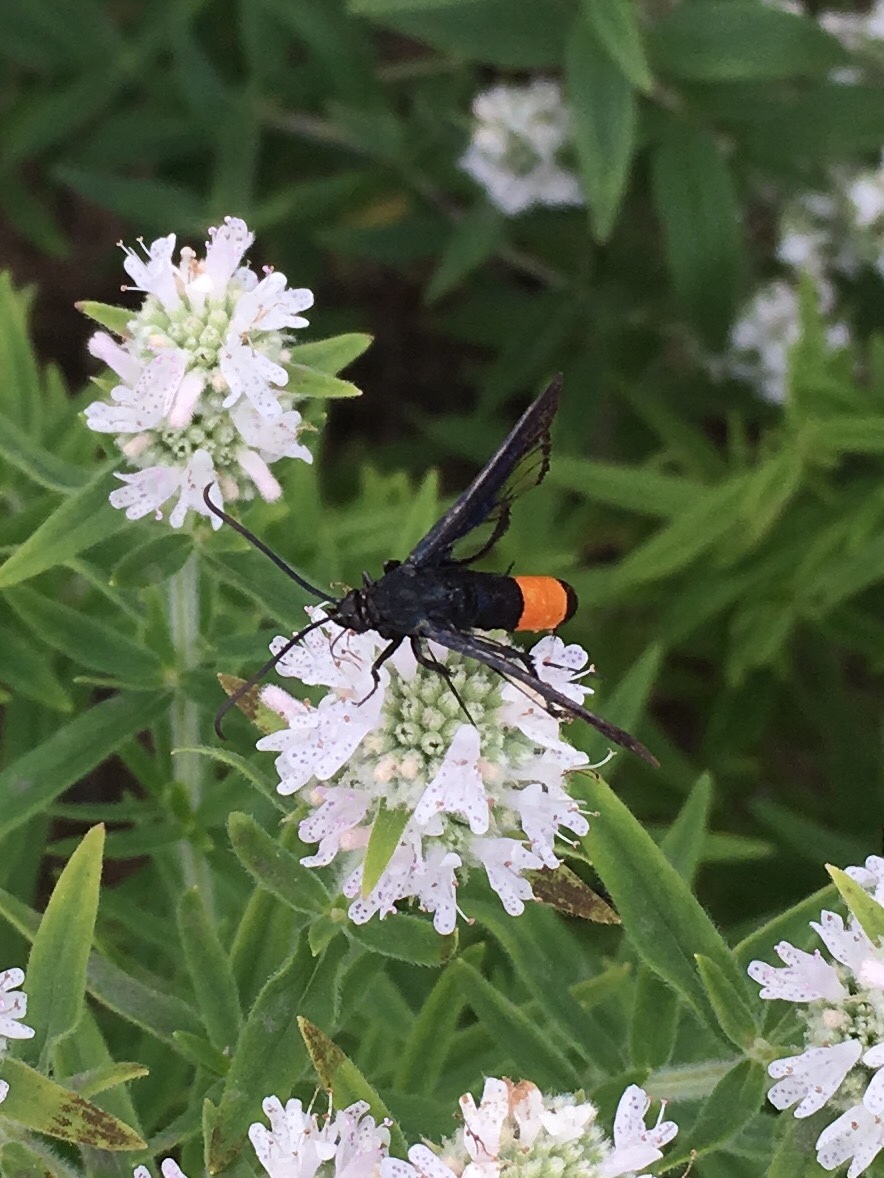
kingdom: Animalia
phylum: Arthropoda
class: Insecta
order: Lepidoptera
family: Sesiidae
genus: Synanthedon
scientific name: Synanthedon exitiosa
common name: Peachtree borer moth
